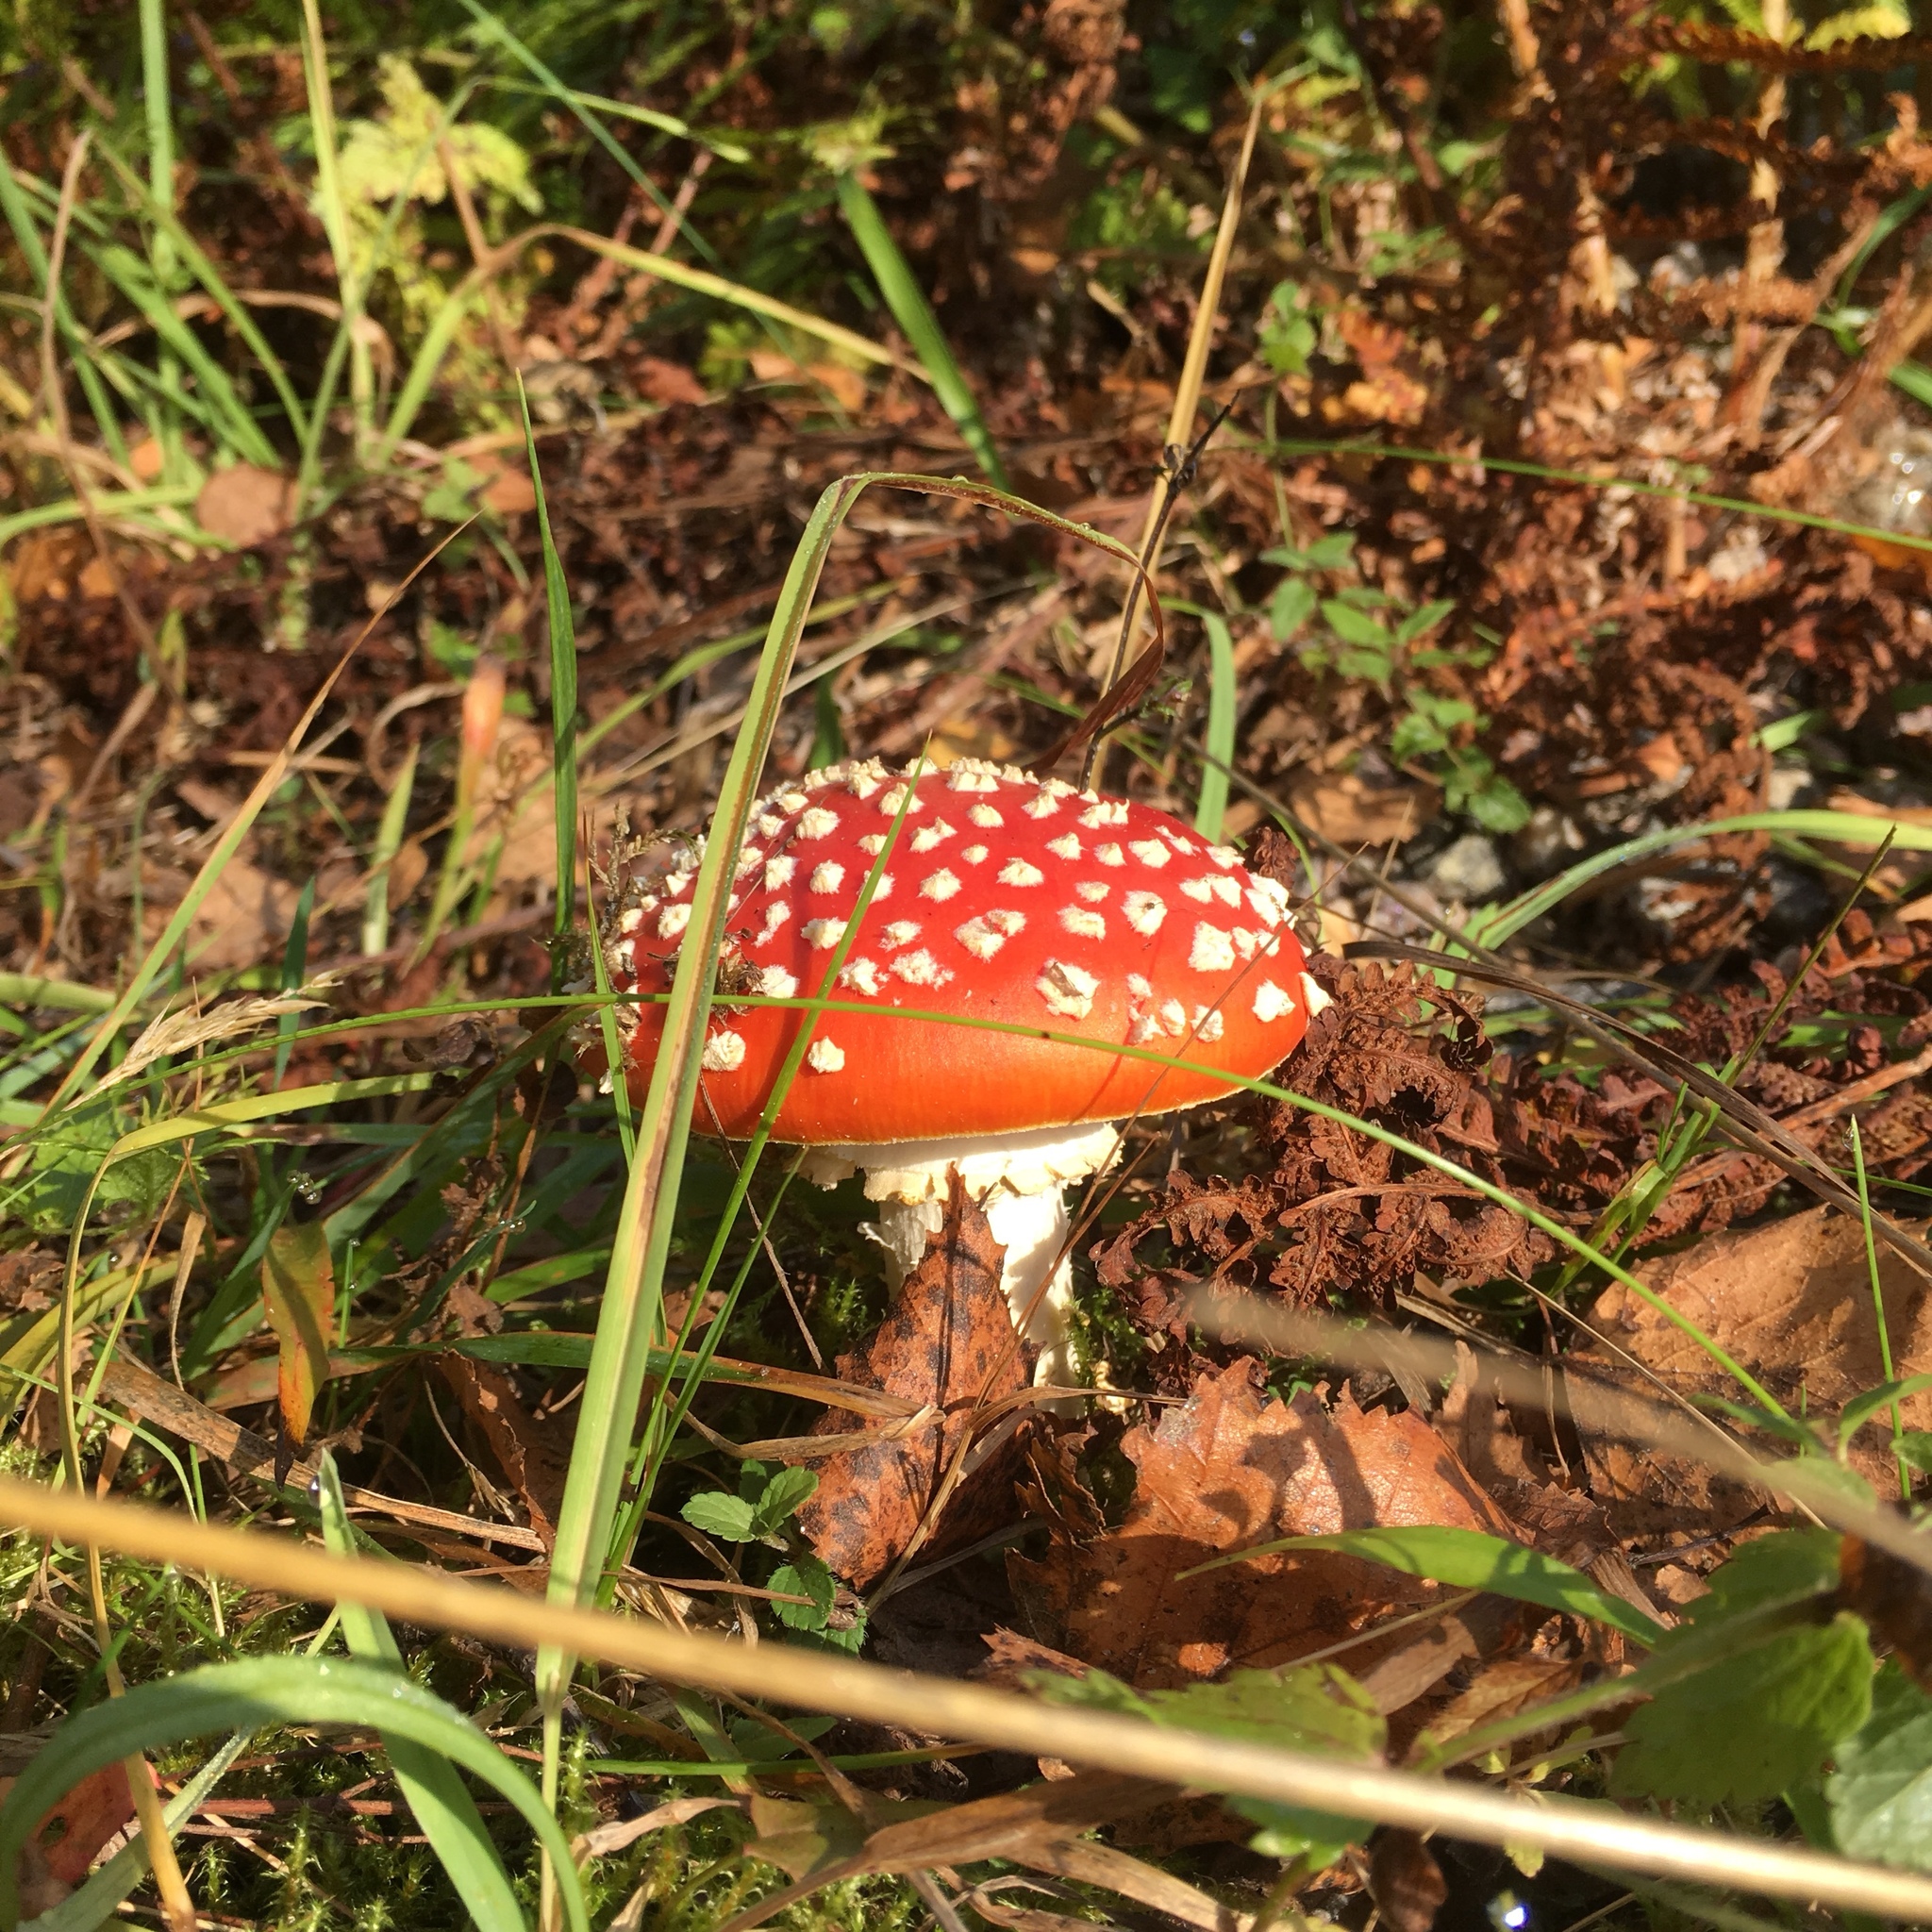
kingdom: Fungi
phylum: Basidiomycota
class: Agaricomycetes
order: Agaricales
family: Amanitaceae
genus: Amanita
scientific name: Amanita muscaria
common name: Fly agaric
